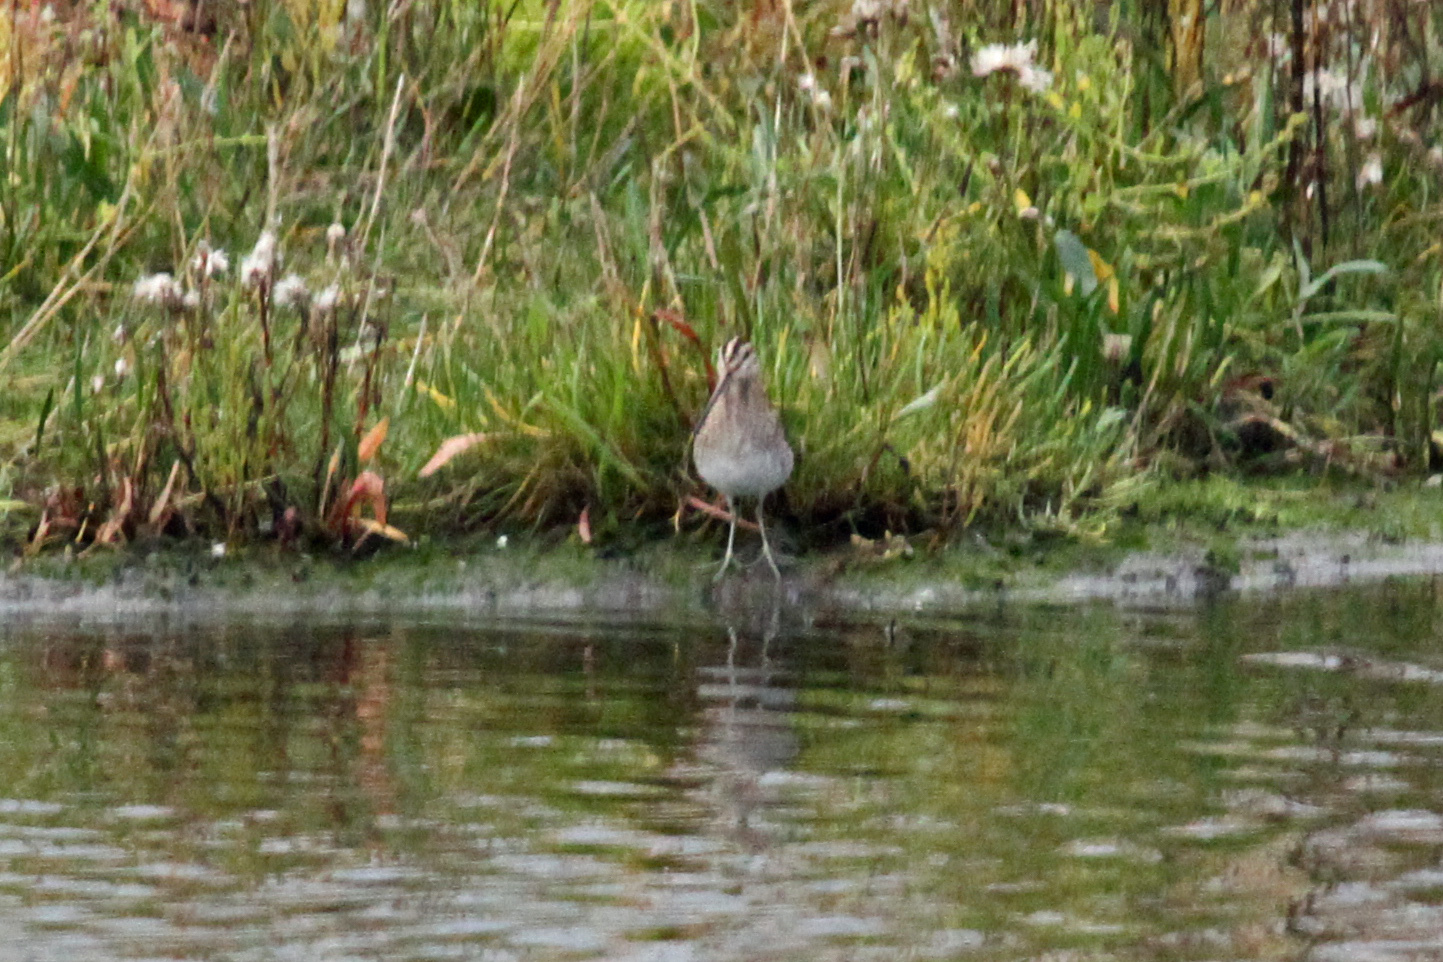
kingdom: Animalia
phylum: Chordata
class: Aves
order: Charadriiformes
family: Scolopacidae
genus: Gallinago
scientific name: Gallinago gallinago
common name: Common snipe
